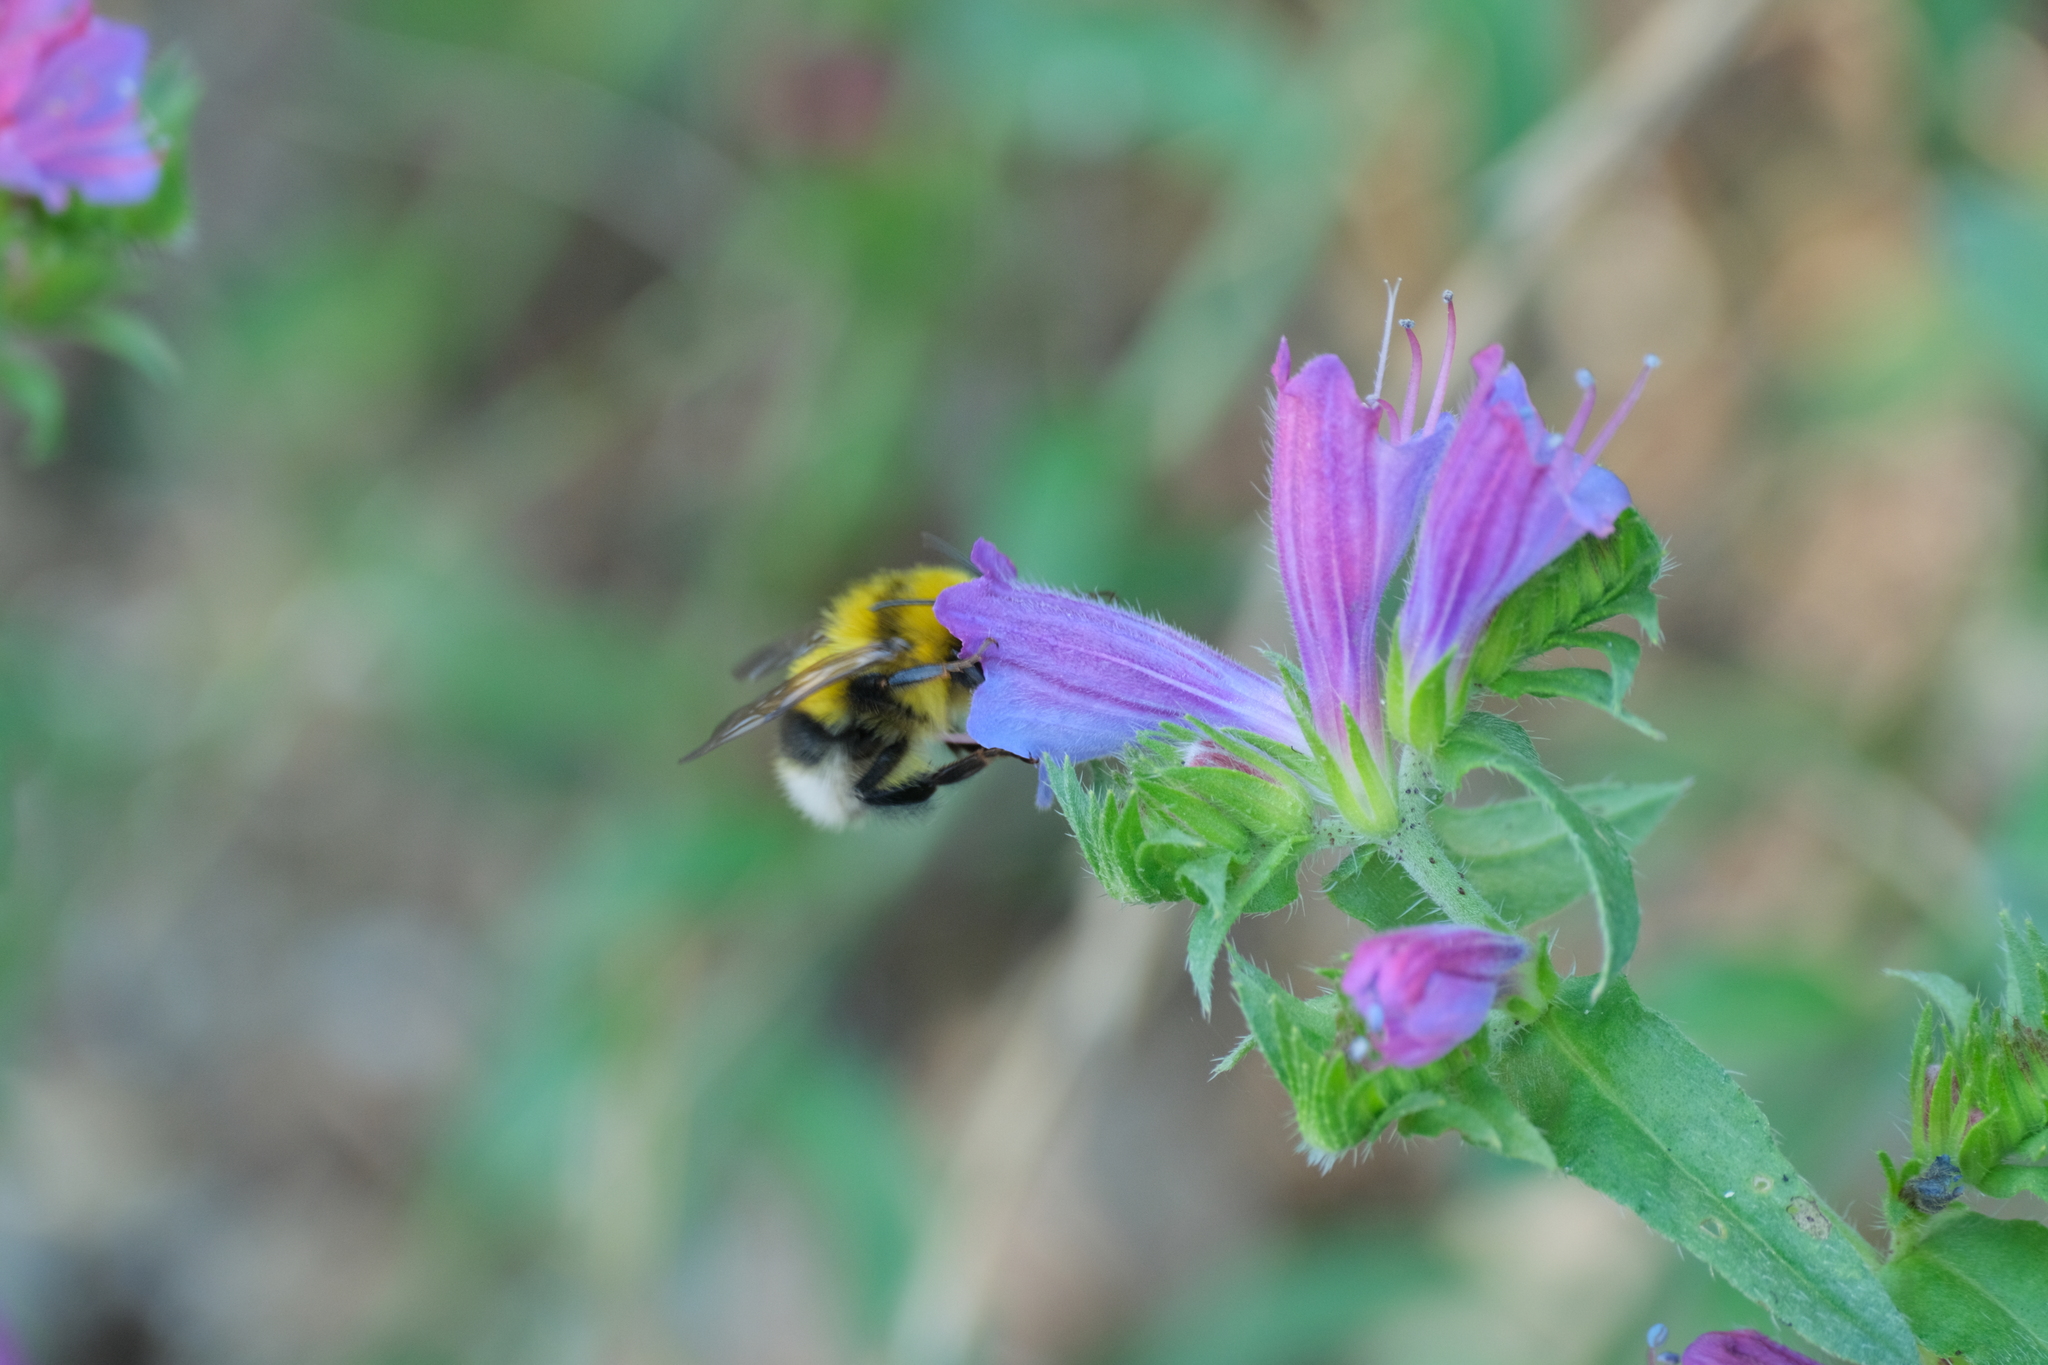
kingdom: Animalia
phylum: Arthropoda
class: Insecta
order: Hymenoptera
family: Apidae
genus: Bombus
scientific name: Bombus ruderatus
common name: Large garden bumblebee
